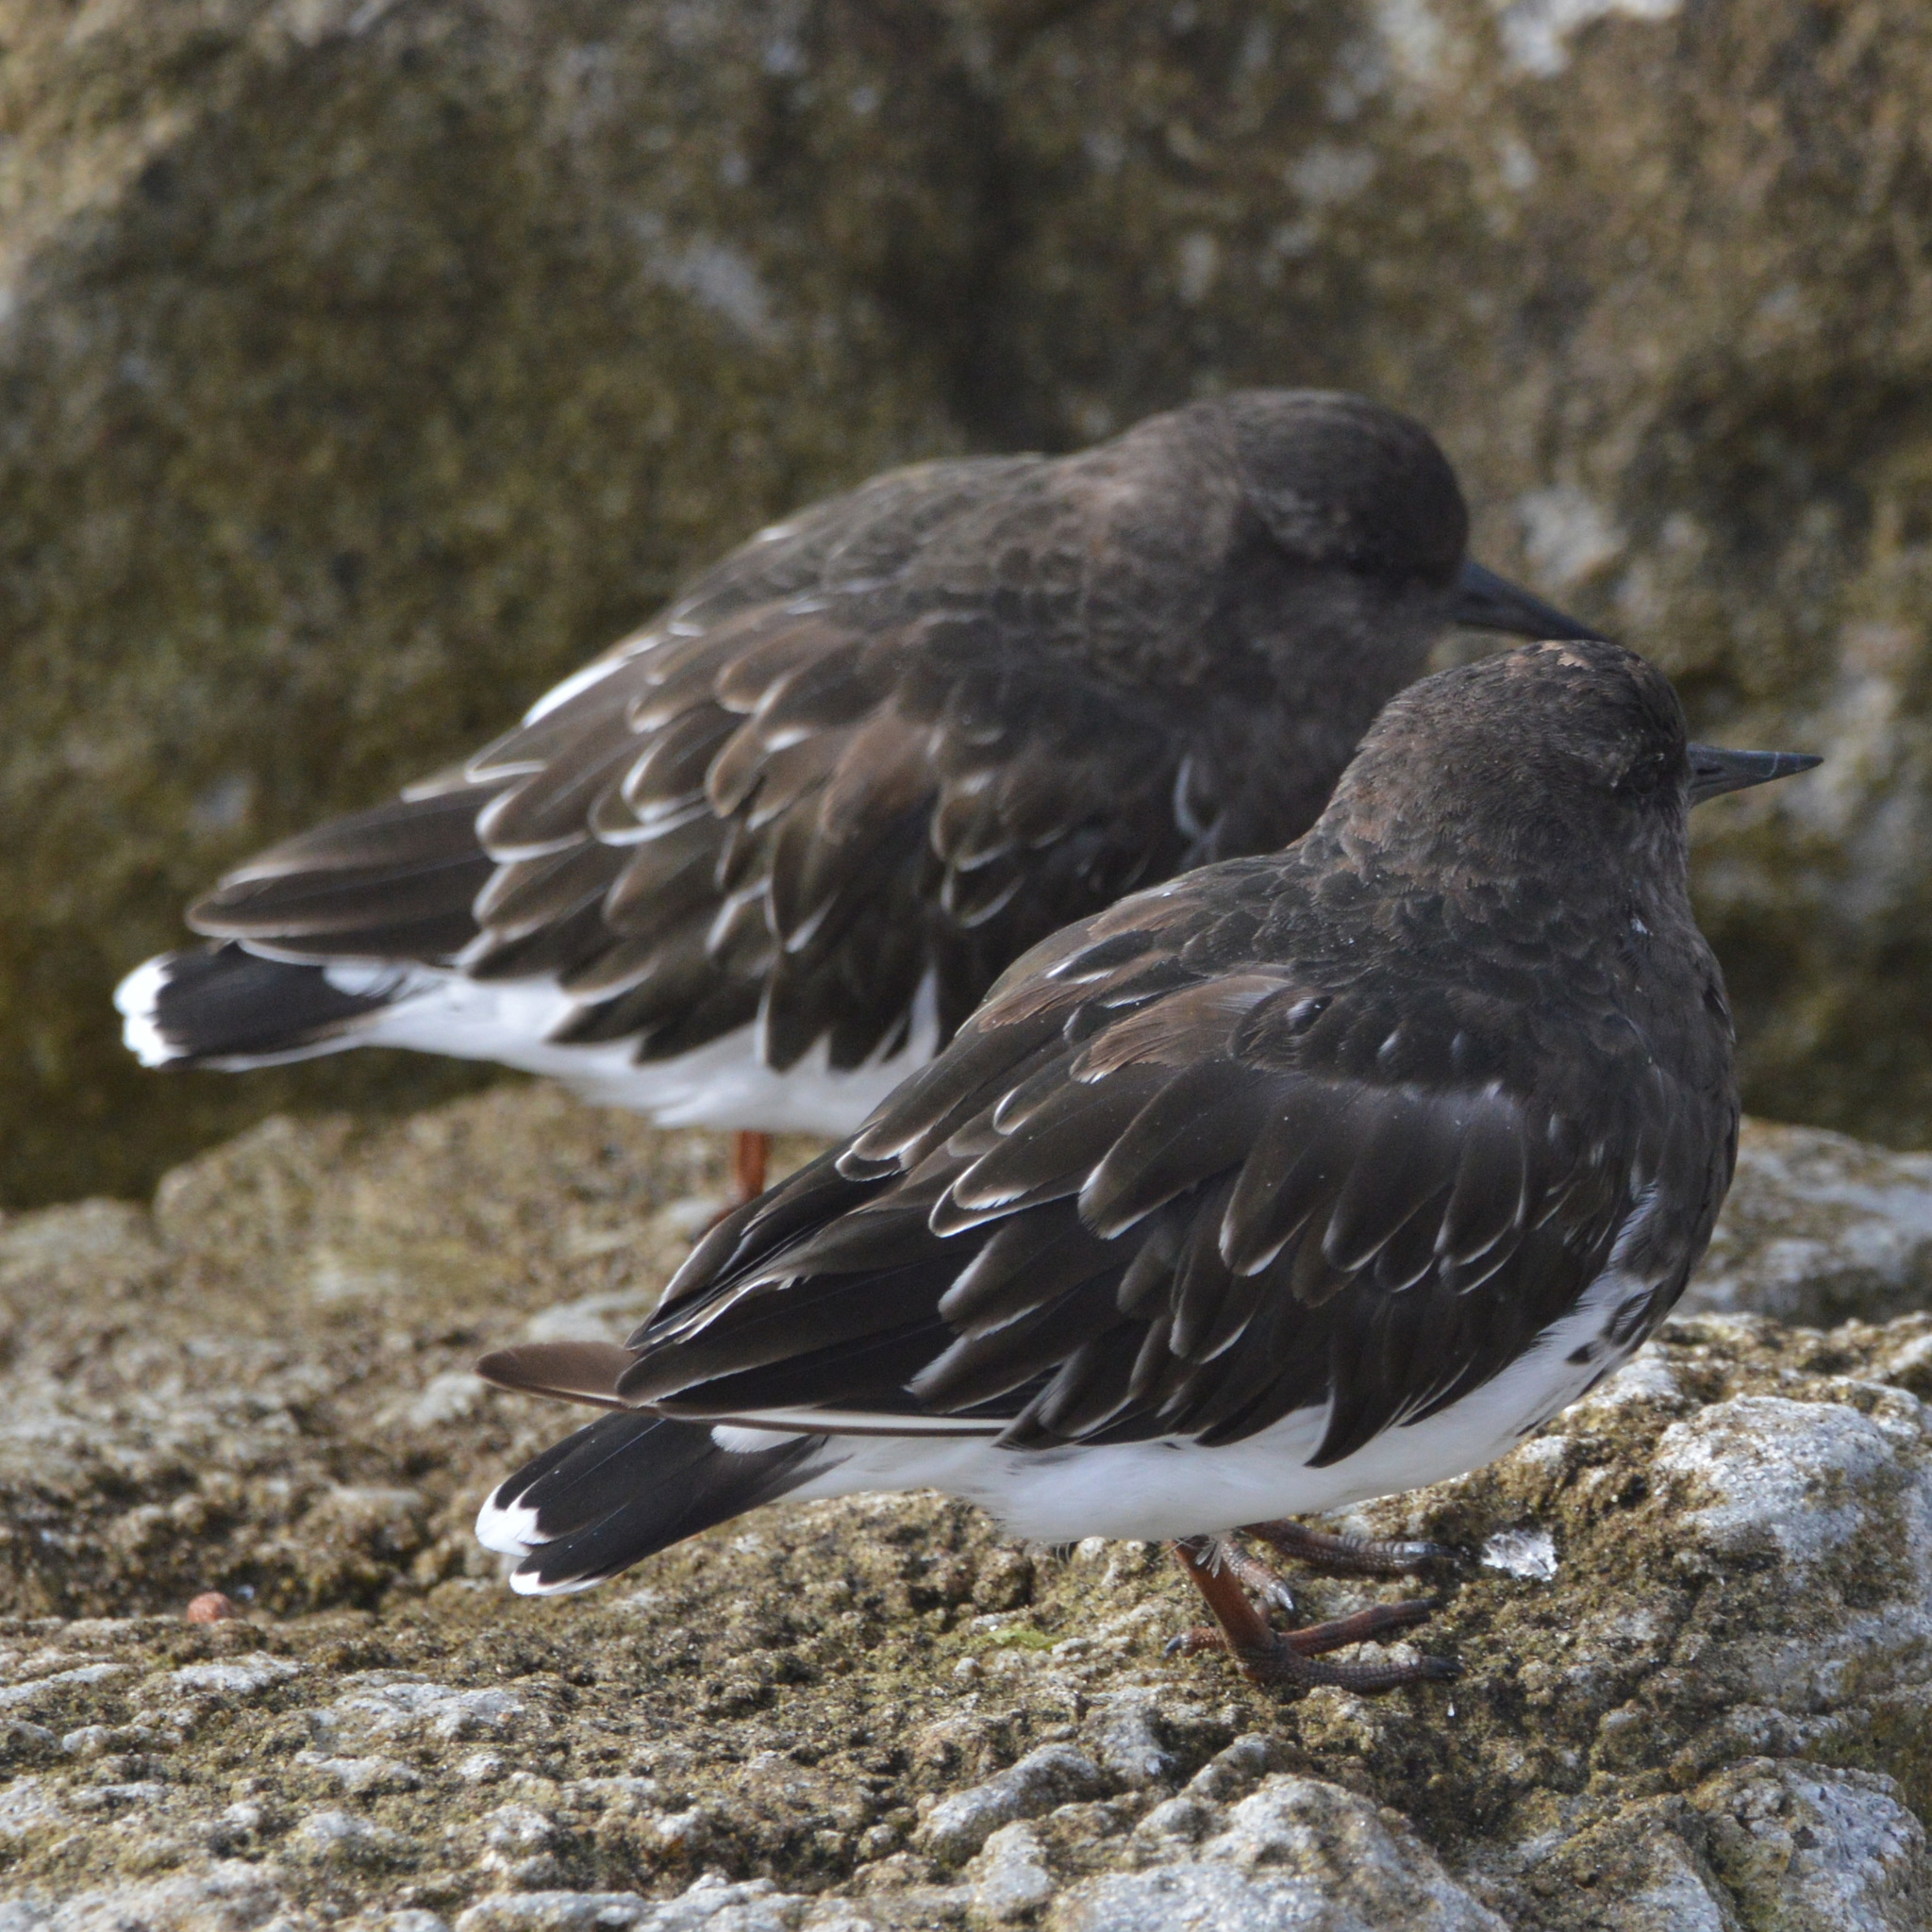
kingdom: Animalia
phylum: Chordata
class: Aves
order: Charadriiformes
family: Scolopacidae
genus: Arenaria
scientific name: Arenaria melanocephala
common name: Black turnstone
